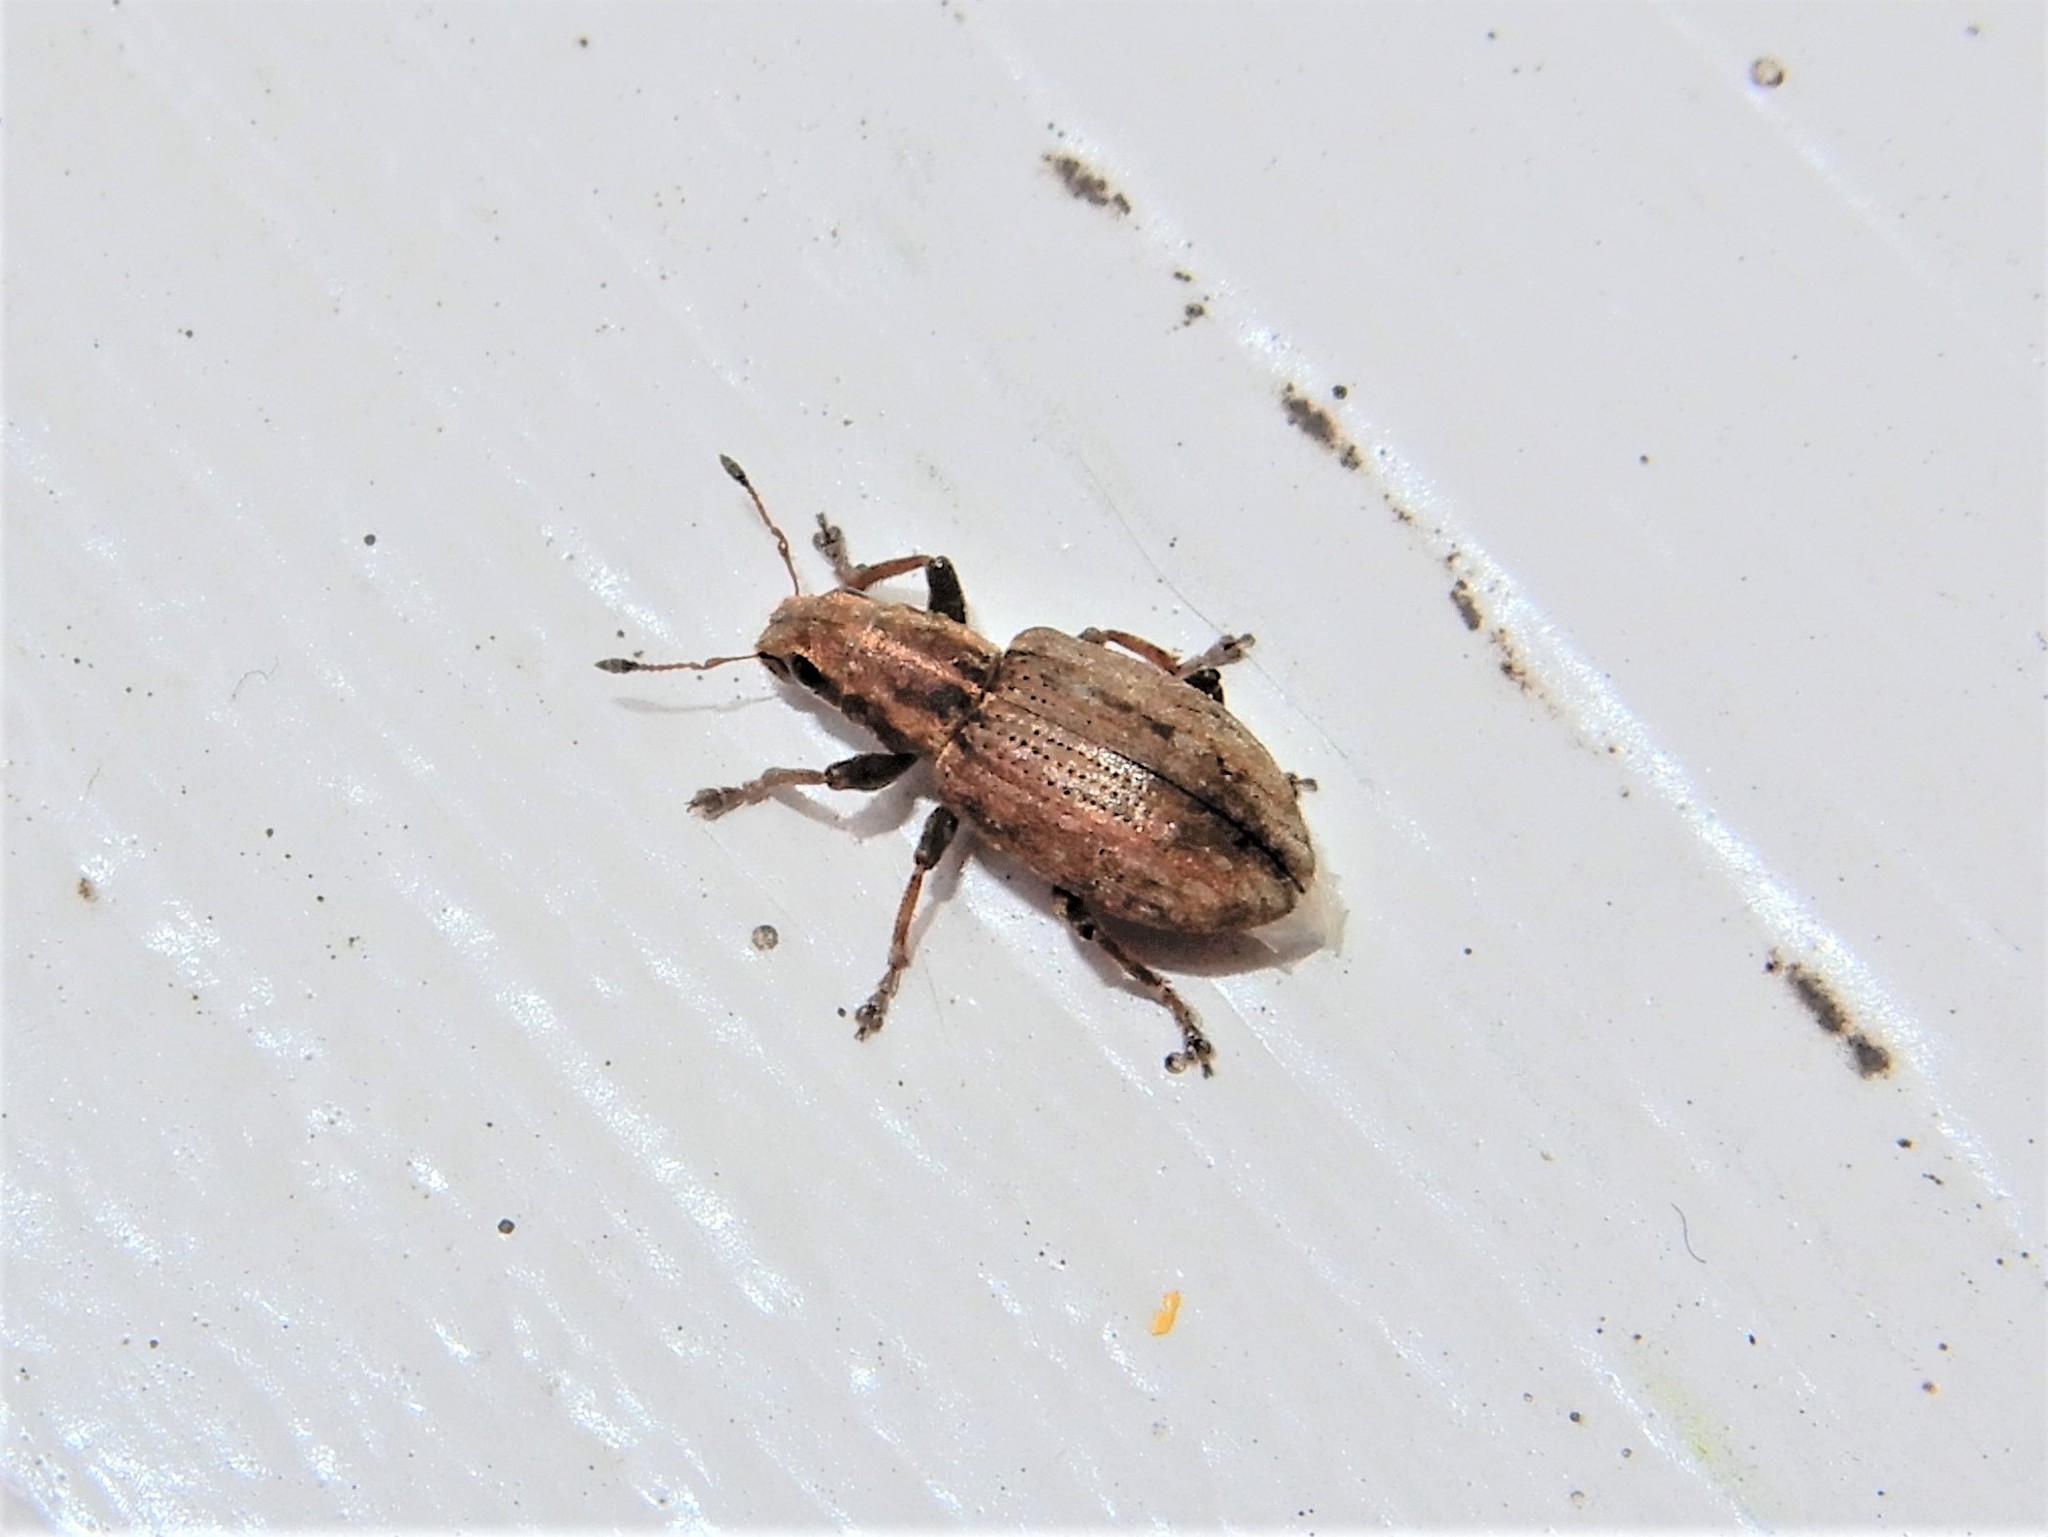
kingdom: Animalia
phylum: Arthropoda
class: Insecta
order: Coleoptera
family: Curculionidae
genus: Sitona
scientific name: Sitona obsoletus
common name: Weevil
